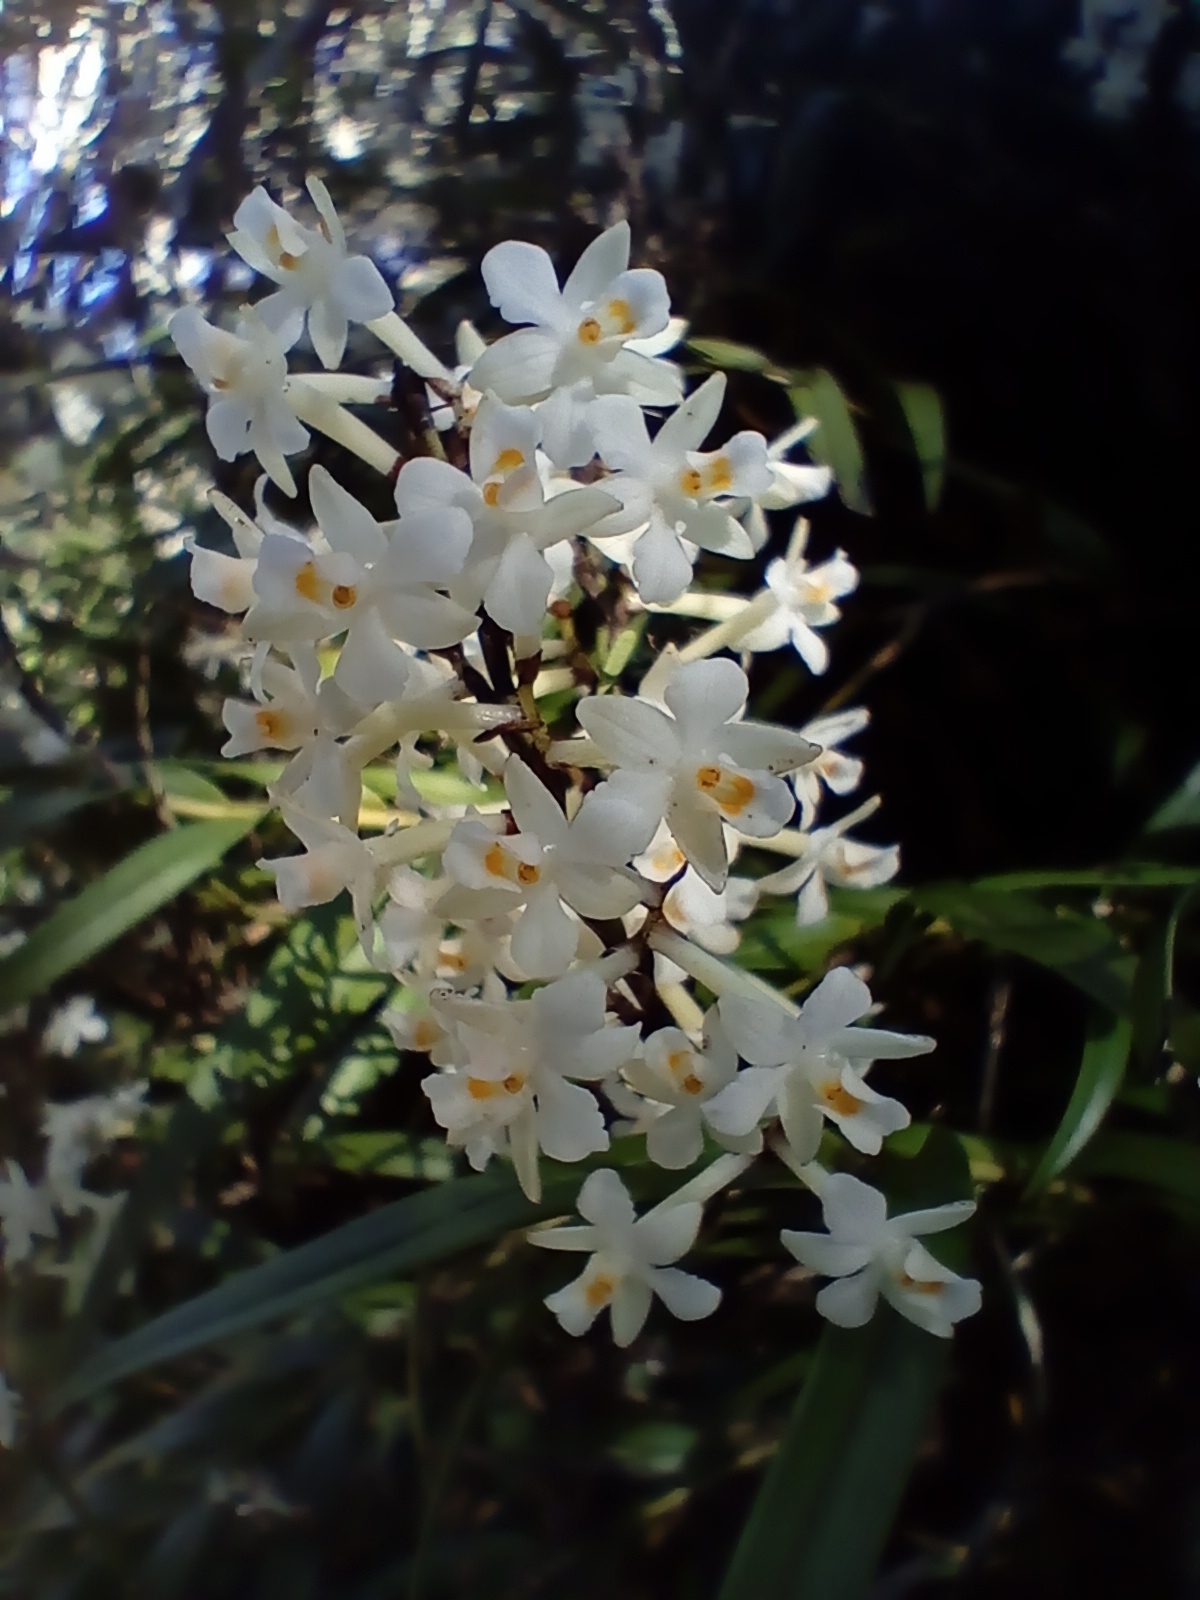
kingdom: Plantae
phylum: Tracheophyta
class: Liliopsida
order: Asparagales
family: Orchidaceae
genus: Earina
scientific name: Earina autumnalis
